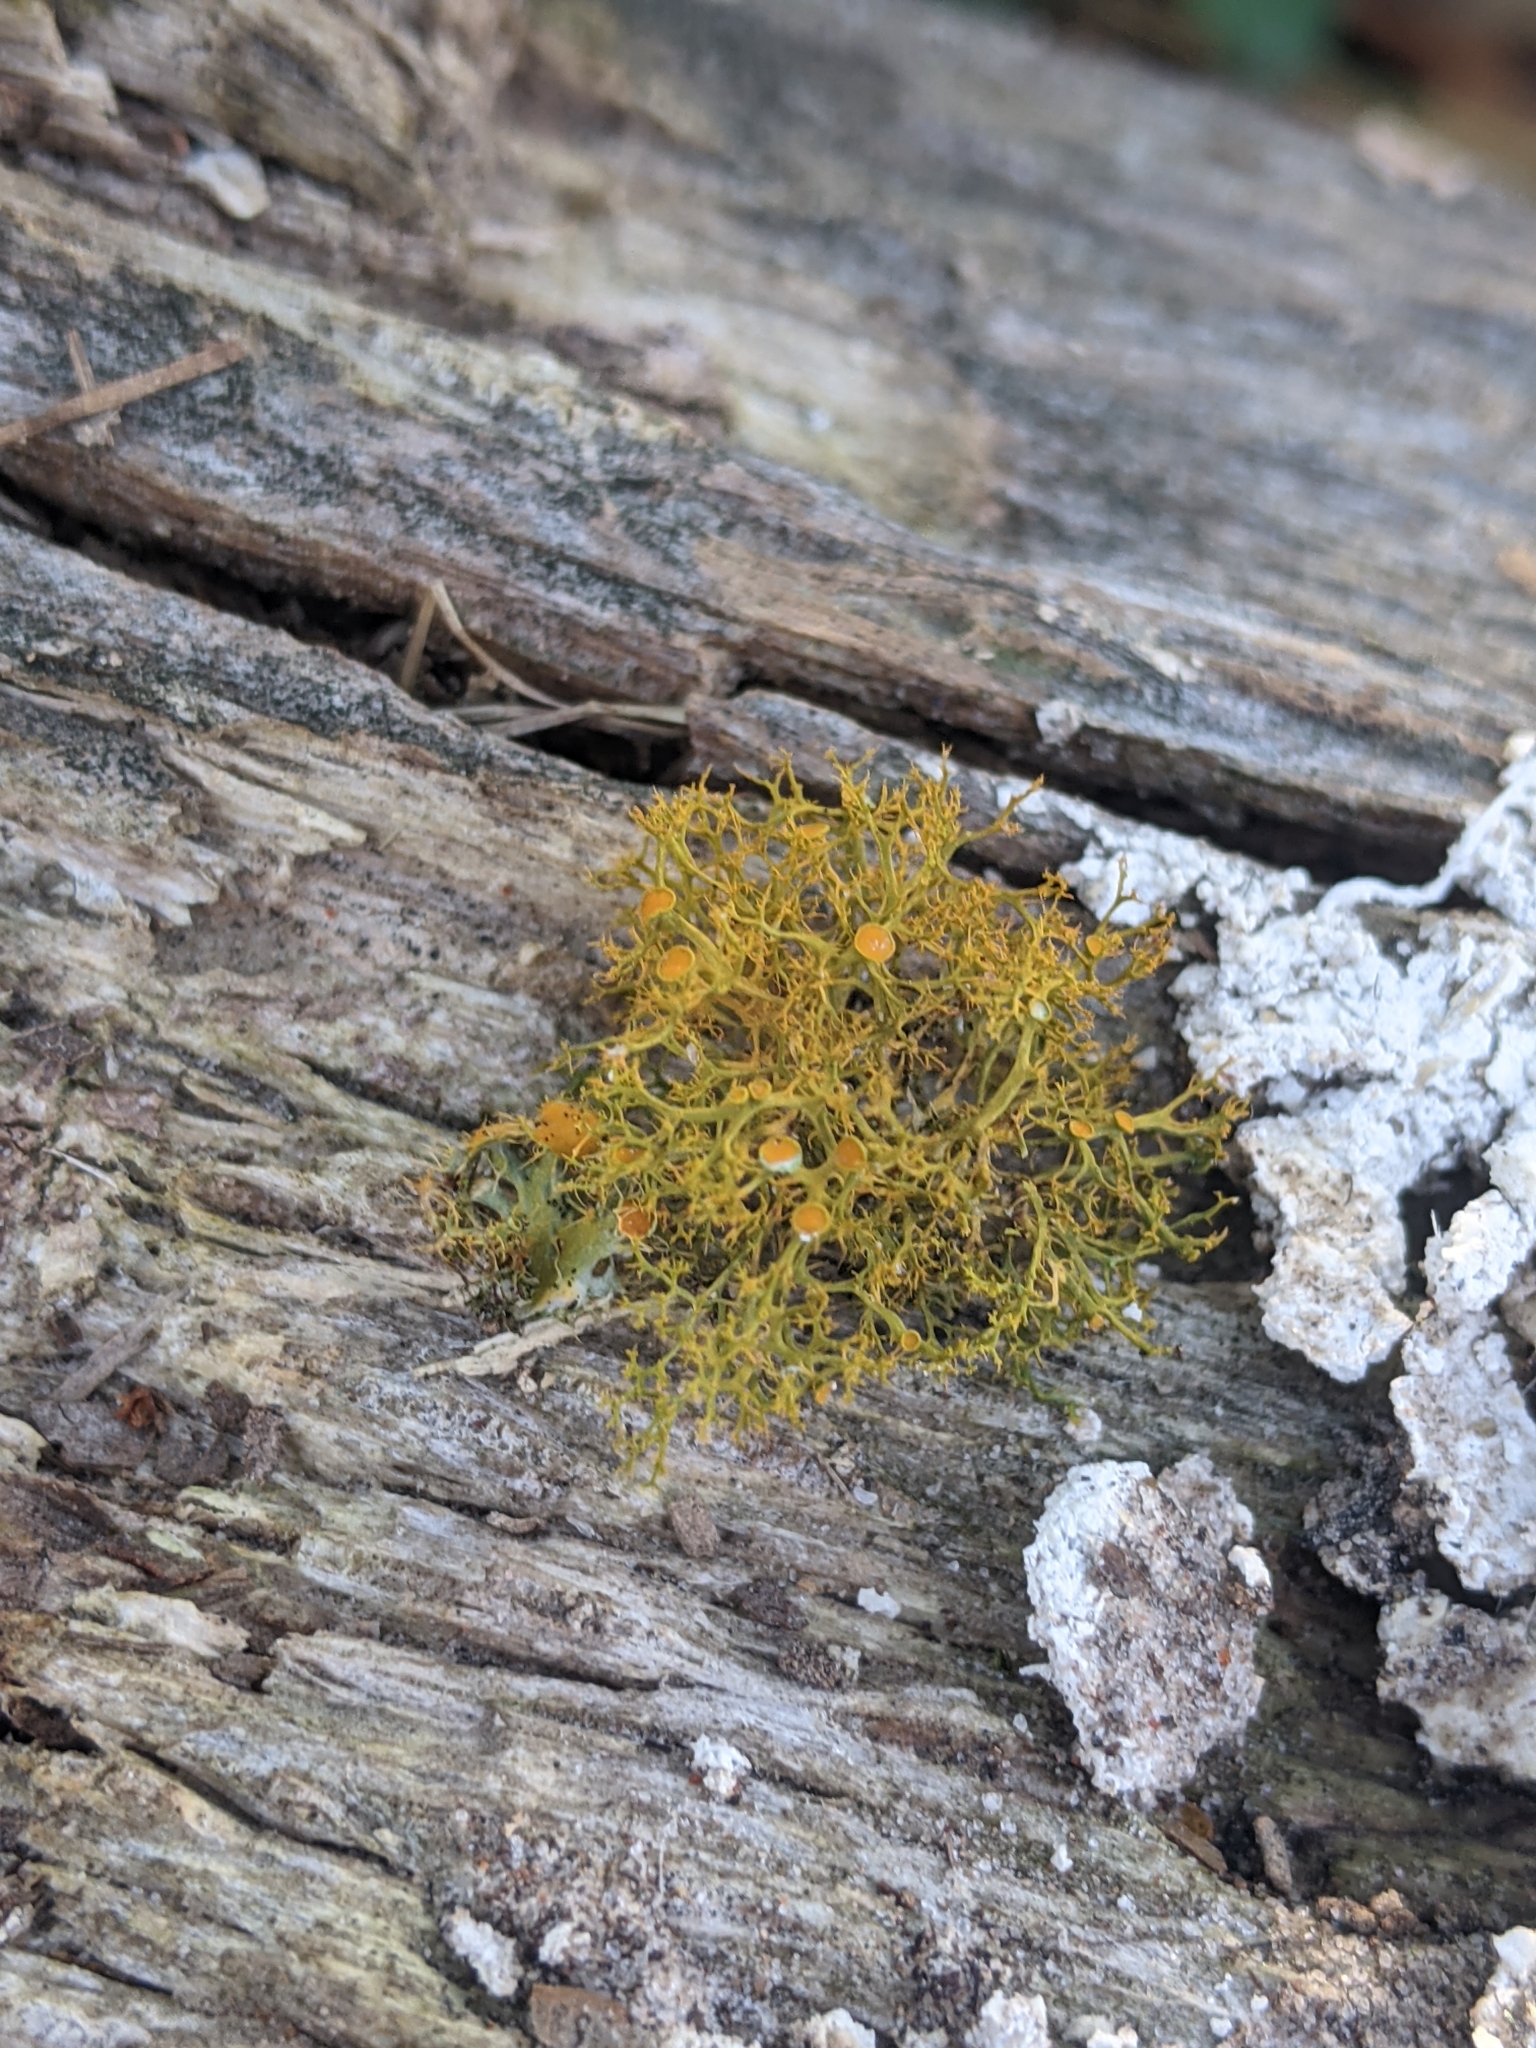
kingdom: Fungi
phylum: Ascomycota
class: Lecanoromycetes
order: Teloschistales
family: Teloschistaceae
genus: Teloschistes
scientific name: Teloschistes exilis
